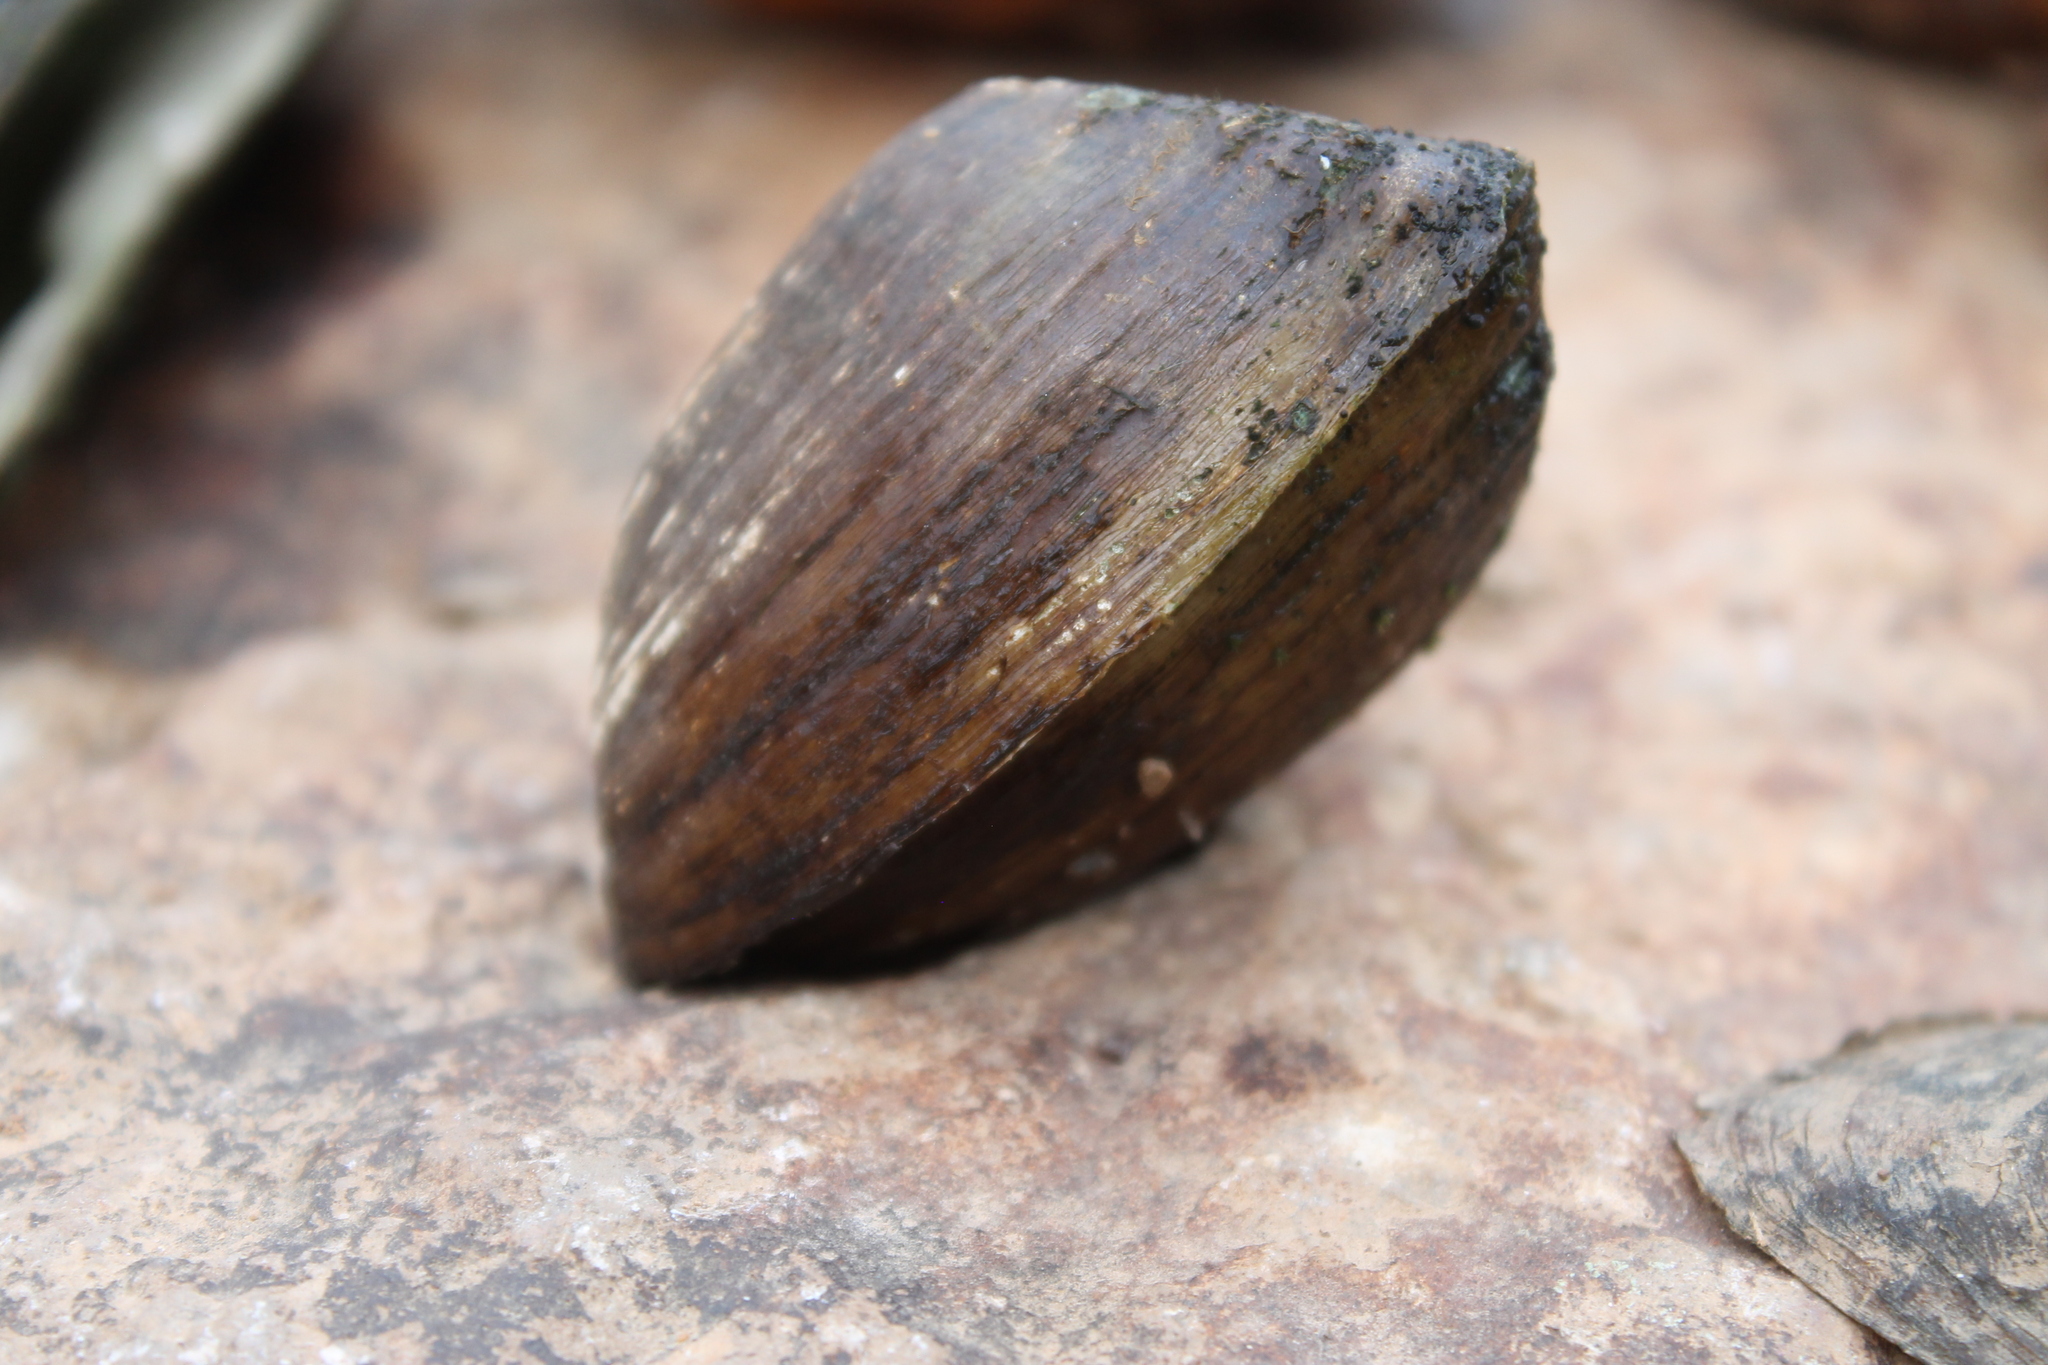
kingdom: Animalia
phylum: Mollusca
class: Bivalvia
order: Unionida
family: Unionidae
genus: Epioblasma
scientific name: Epioblasma triquetra
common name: Snuffbox
